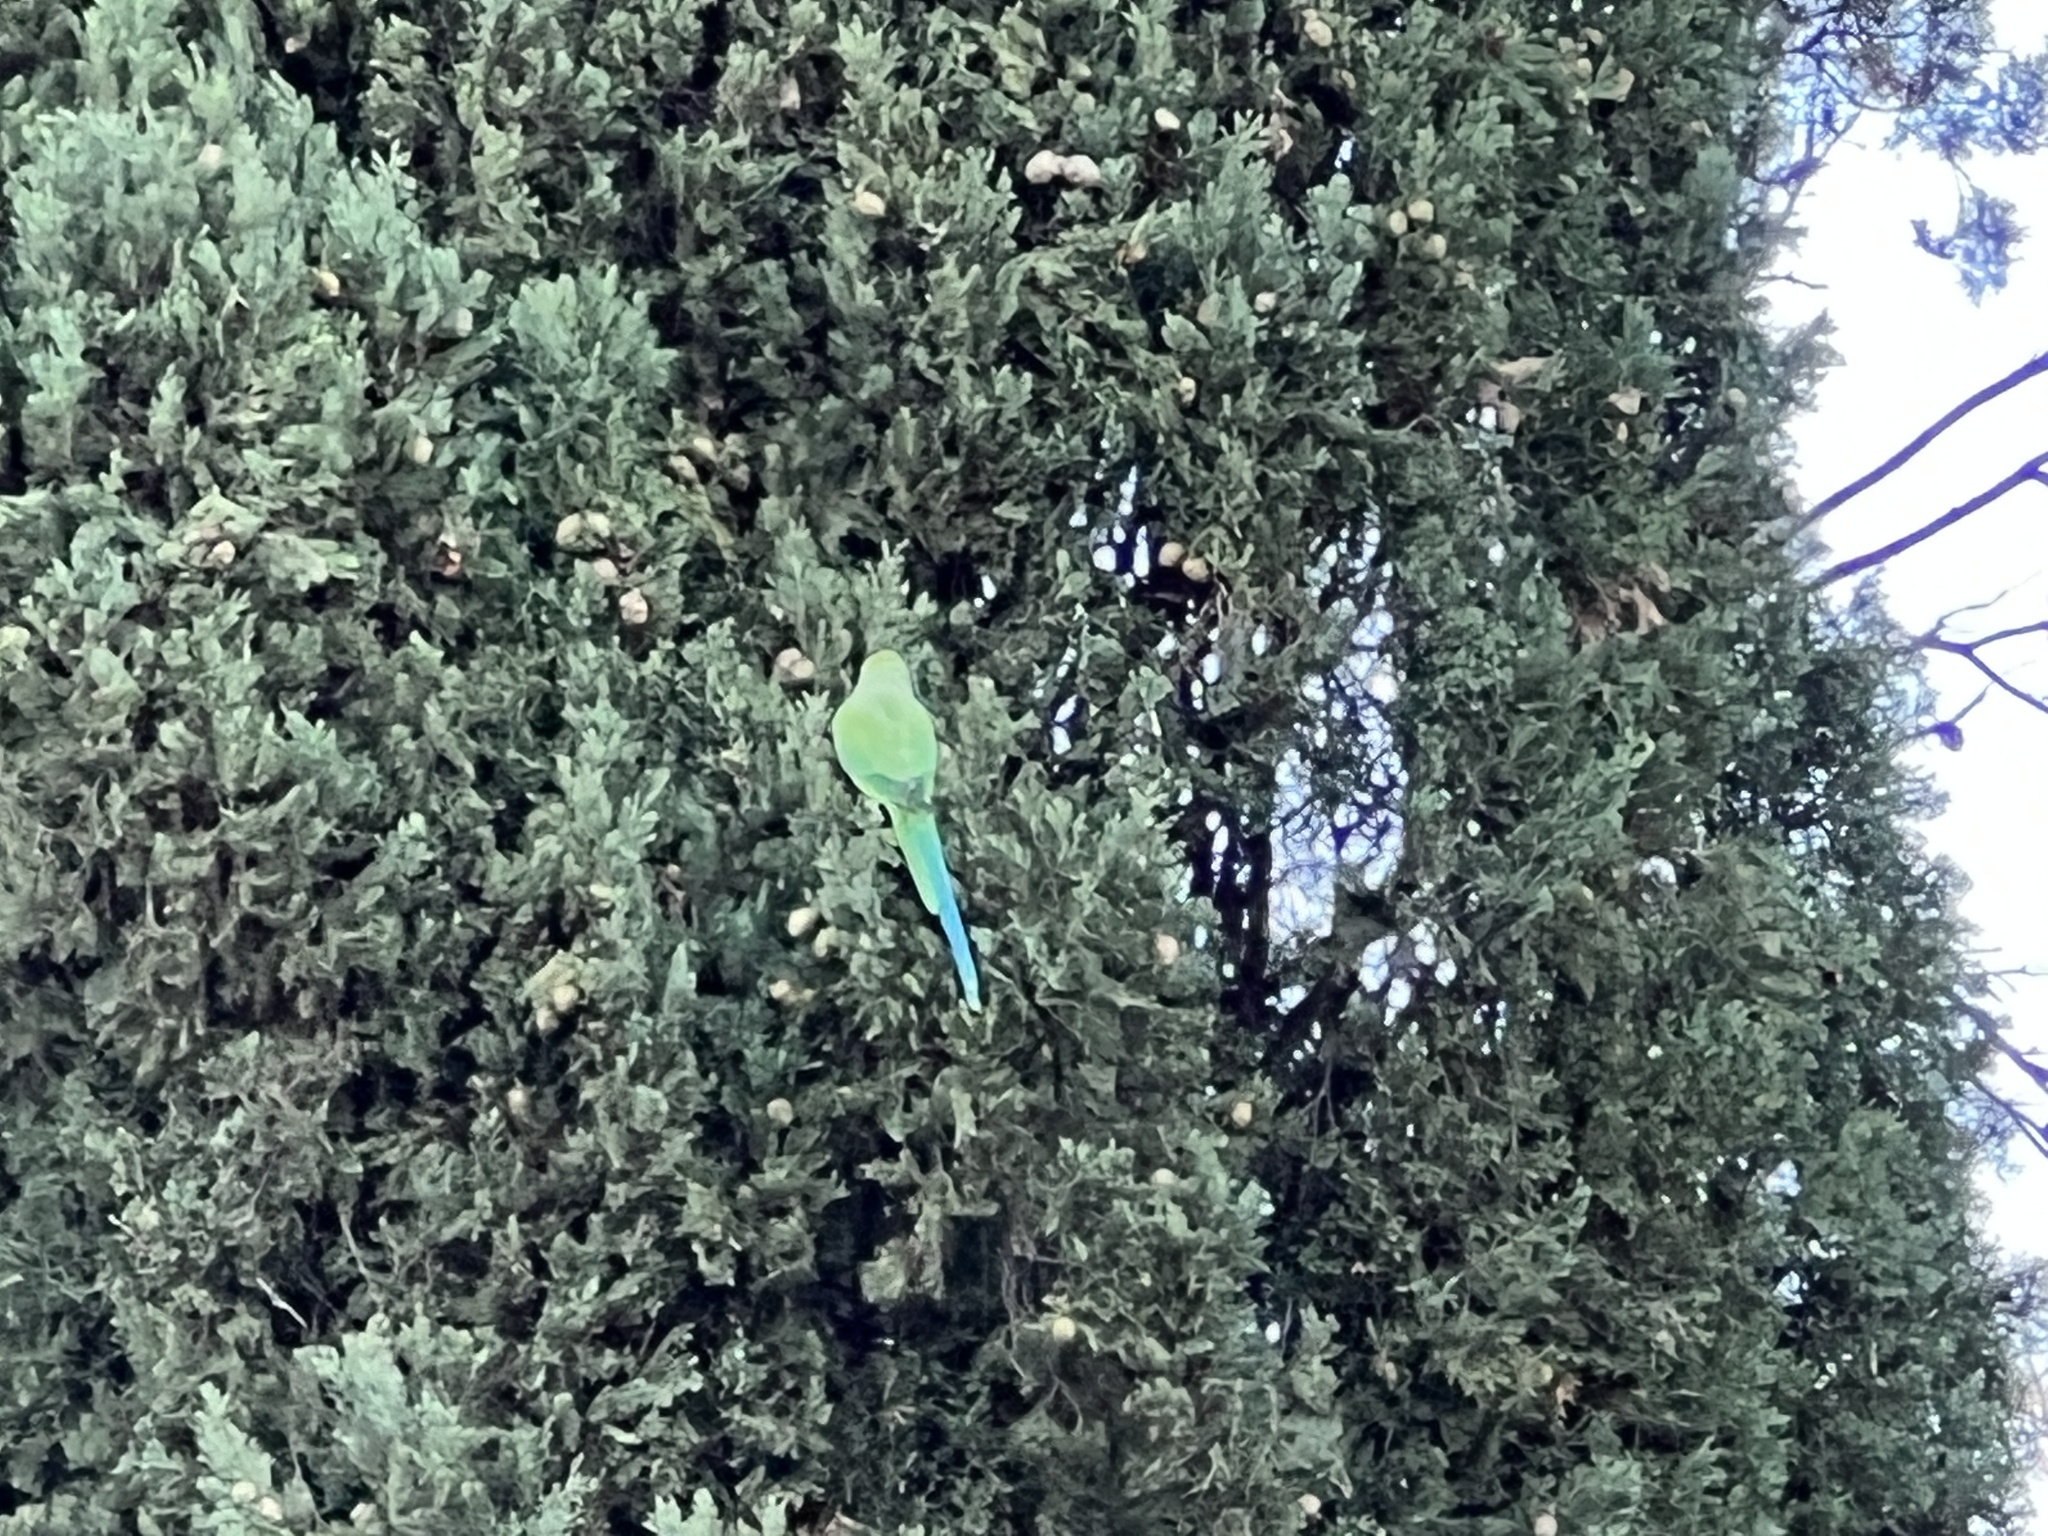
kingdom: Animalia
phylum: Chordata
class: Aves
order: Psittaciformes
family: Psittacidae
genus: Psittacula
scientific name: Psittacula krameri
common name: Rose-ringed parakeet
